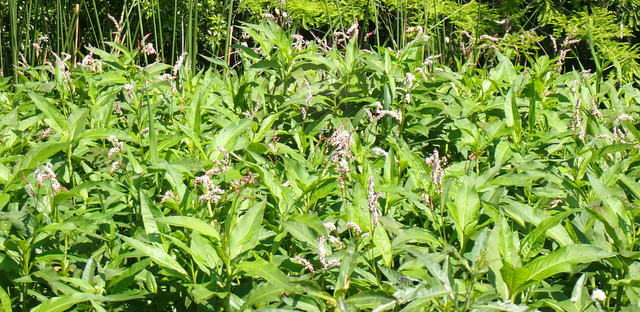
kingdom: Plantae
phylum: Tracheophyta
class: Magnoliopsida
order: Caryophyllales
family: Polygonaceae
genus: Persicaria
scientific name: Persicaria glabra
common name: Denseflower knotweed
